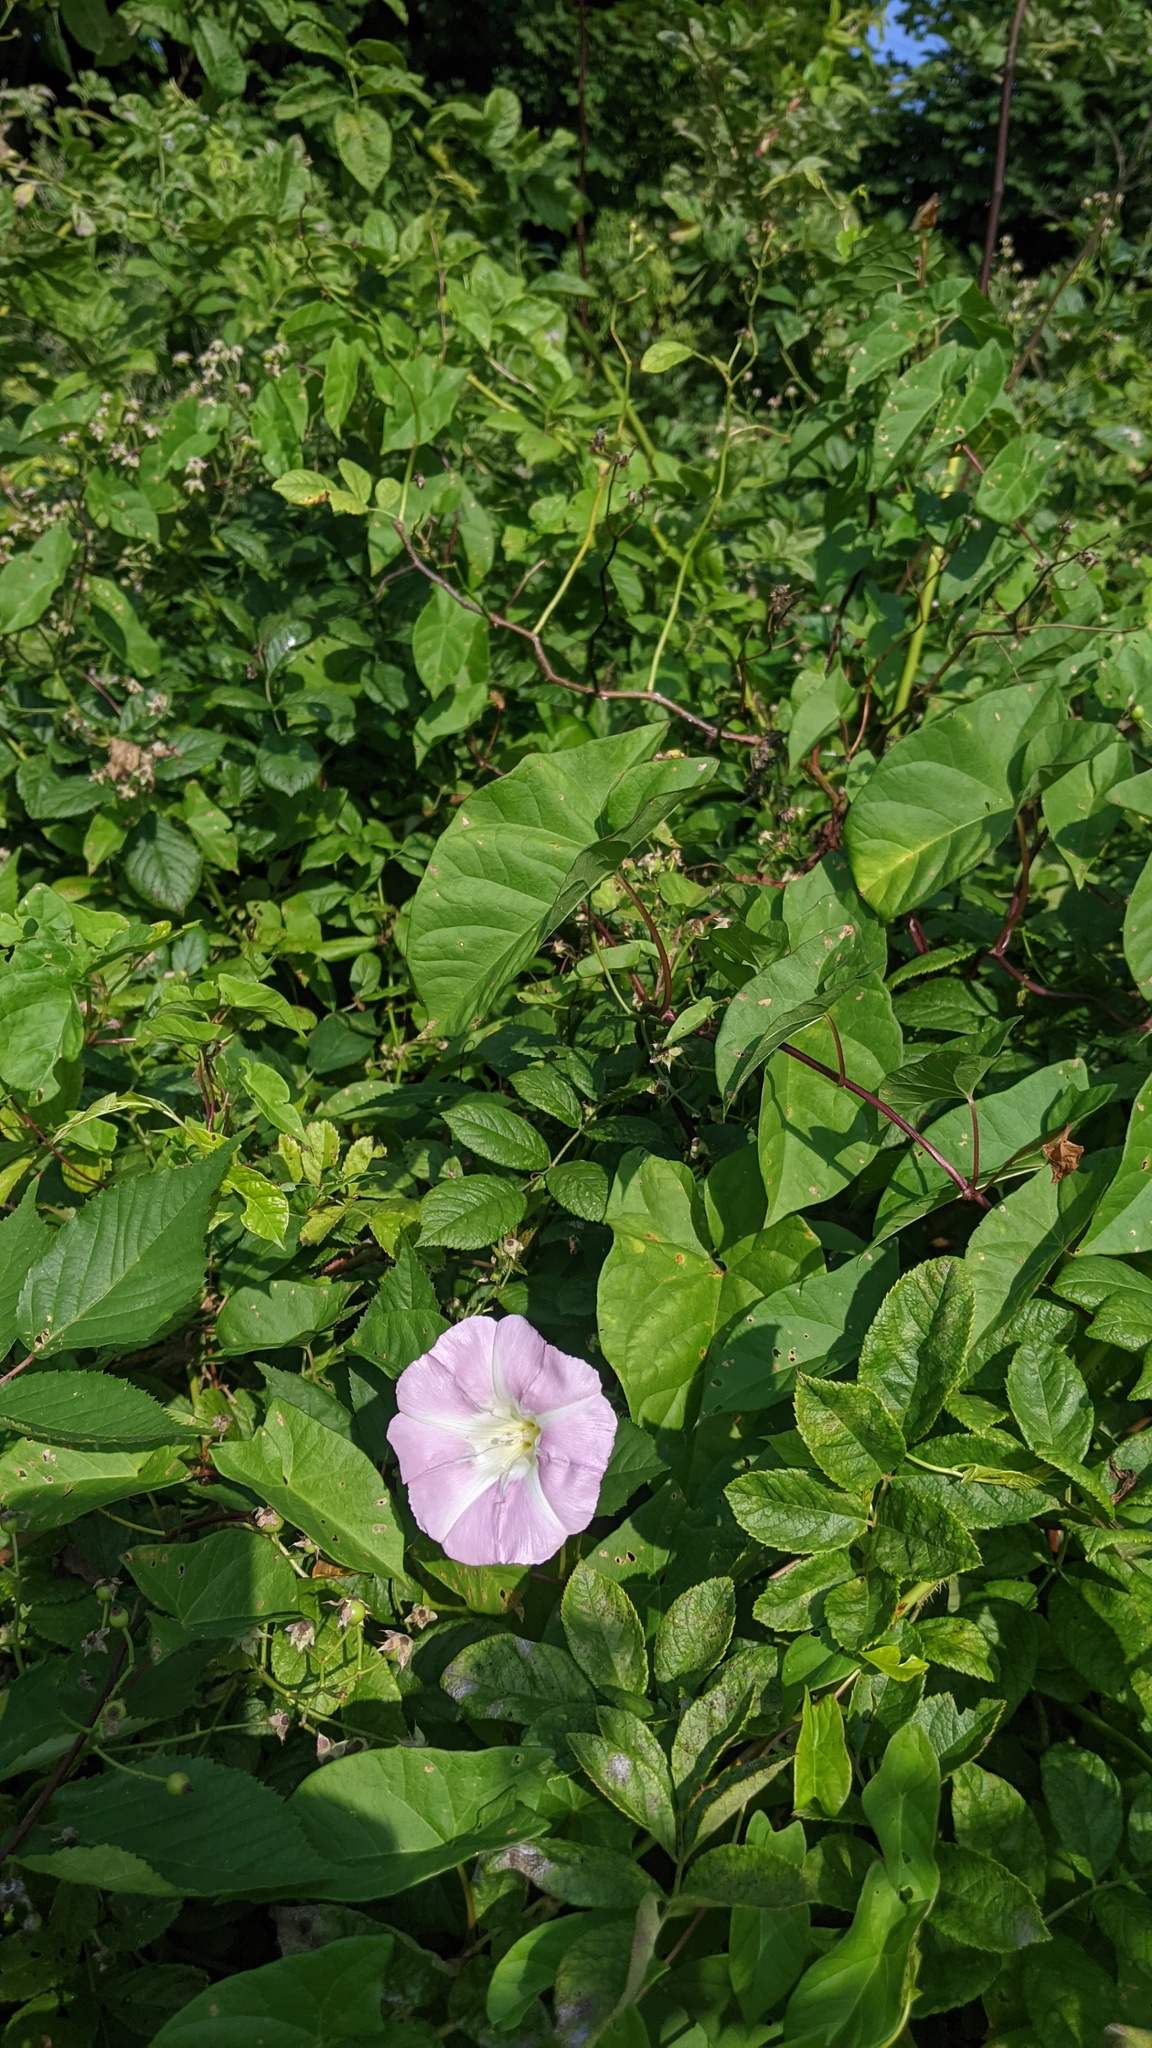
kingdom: Plantae
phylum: Tracheophyta
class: Magnoliopsida
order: Solanales
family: Convolvulaceae
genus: Calystegia
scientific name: Calystegia sepium
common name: Hedge bindweed
